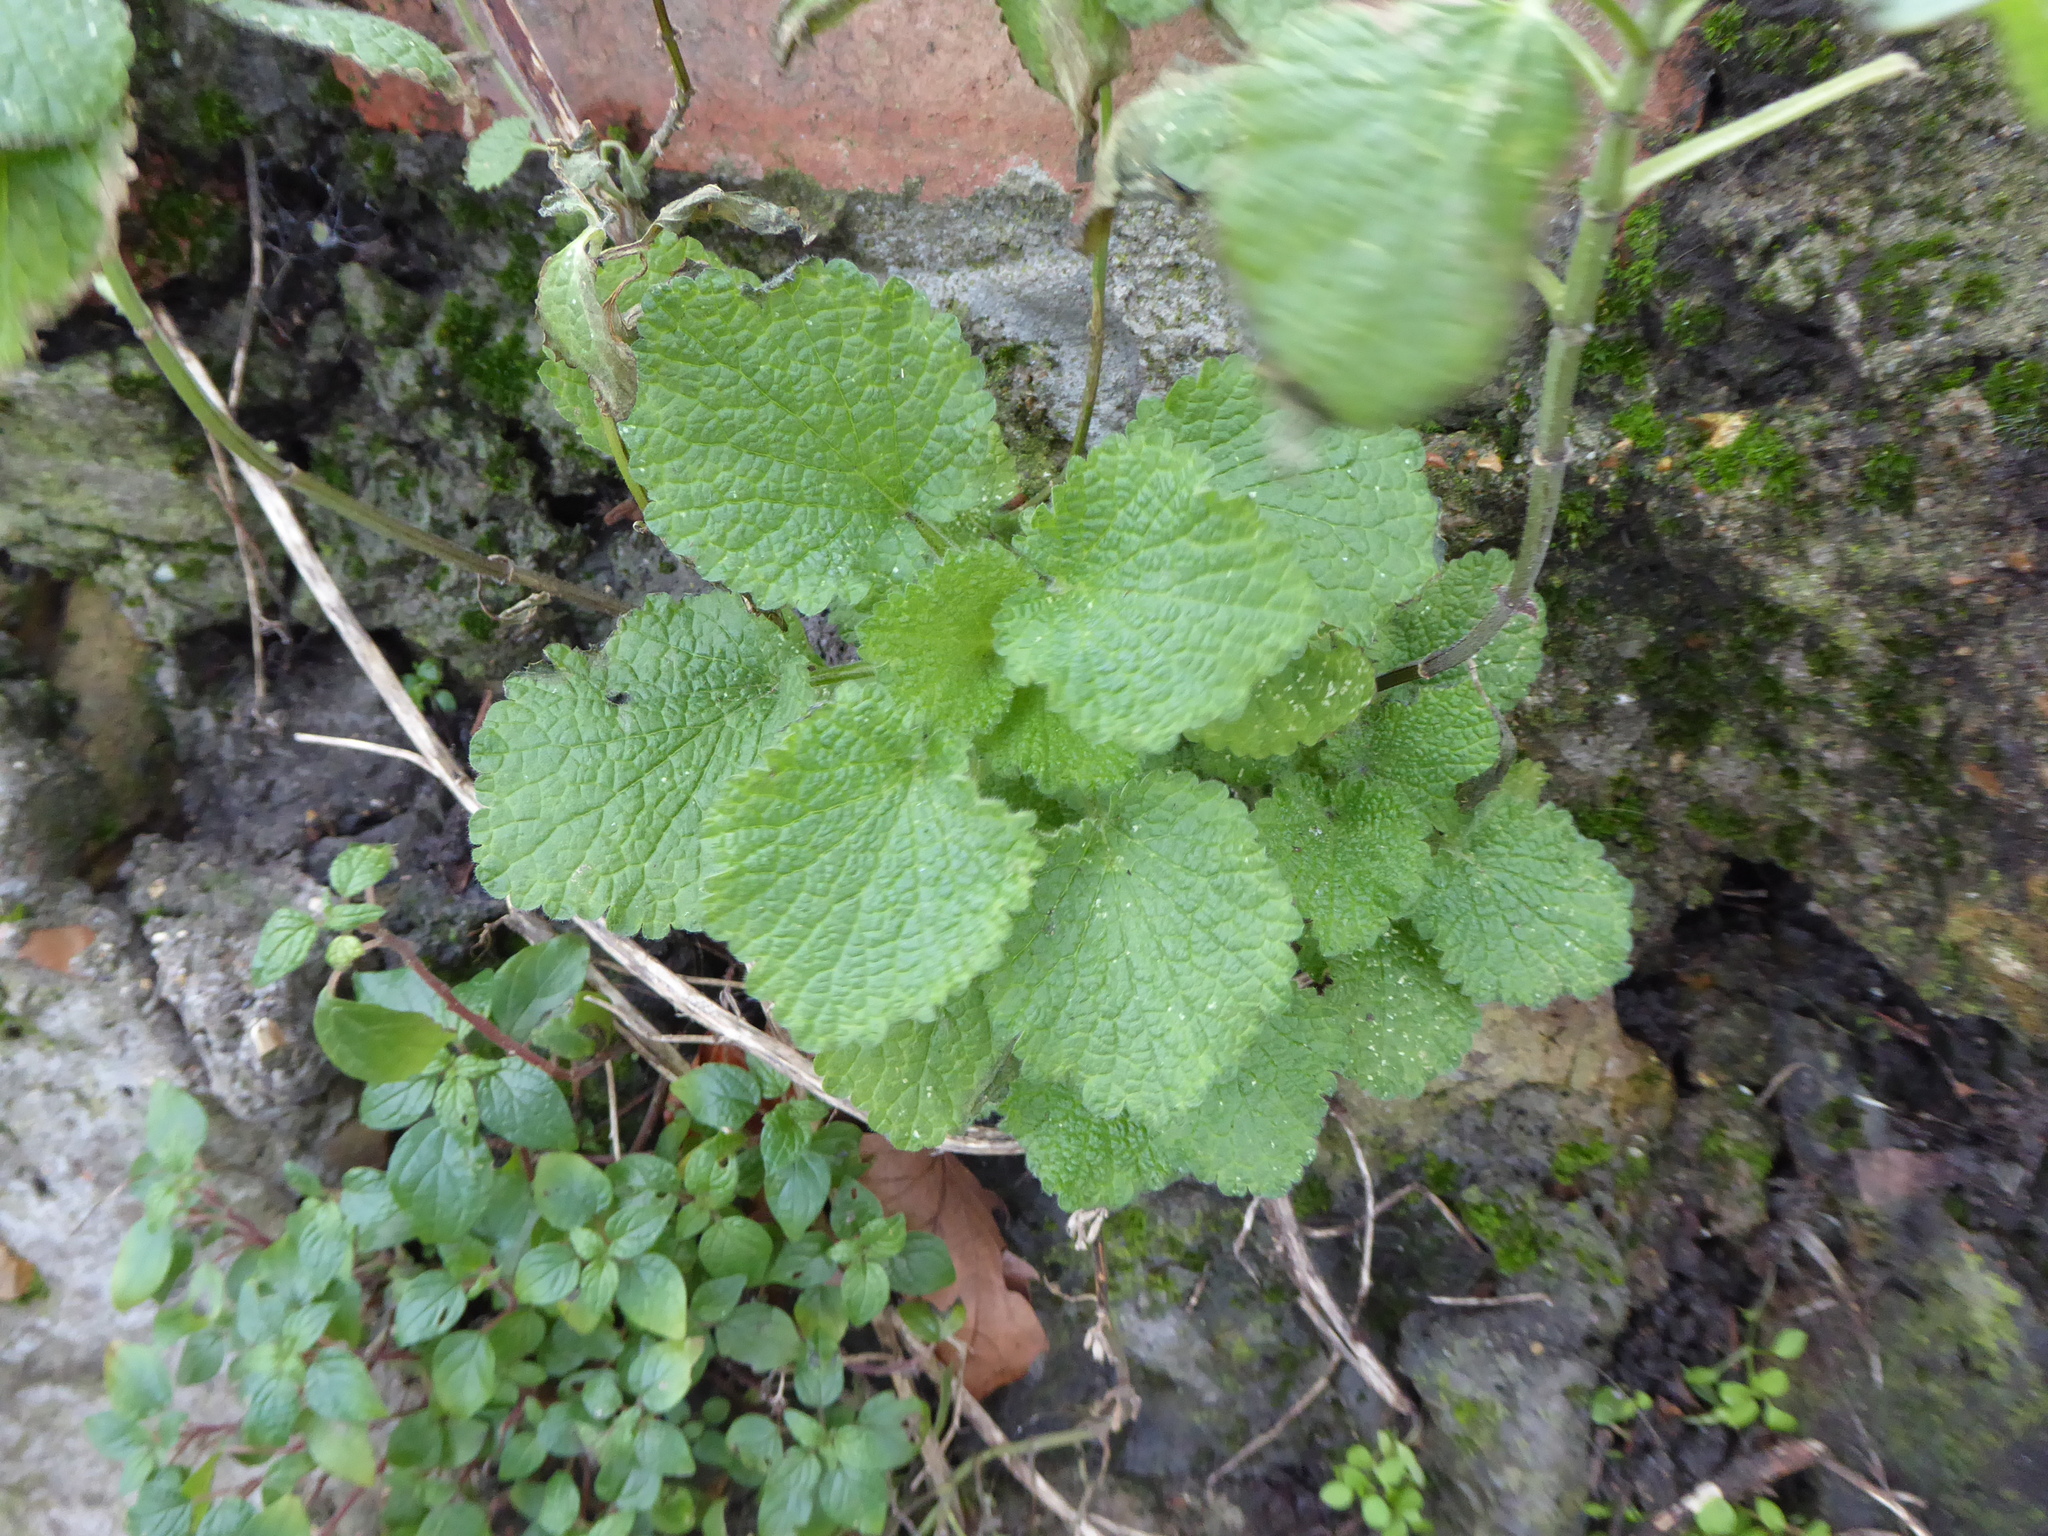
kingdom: Plantae
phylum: Tracheophyta
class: Magnoliopsida
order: Lamiales
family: Lamiaceae
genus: Ballota
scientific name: Ballota nigra
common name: Black horehound
